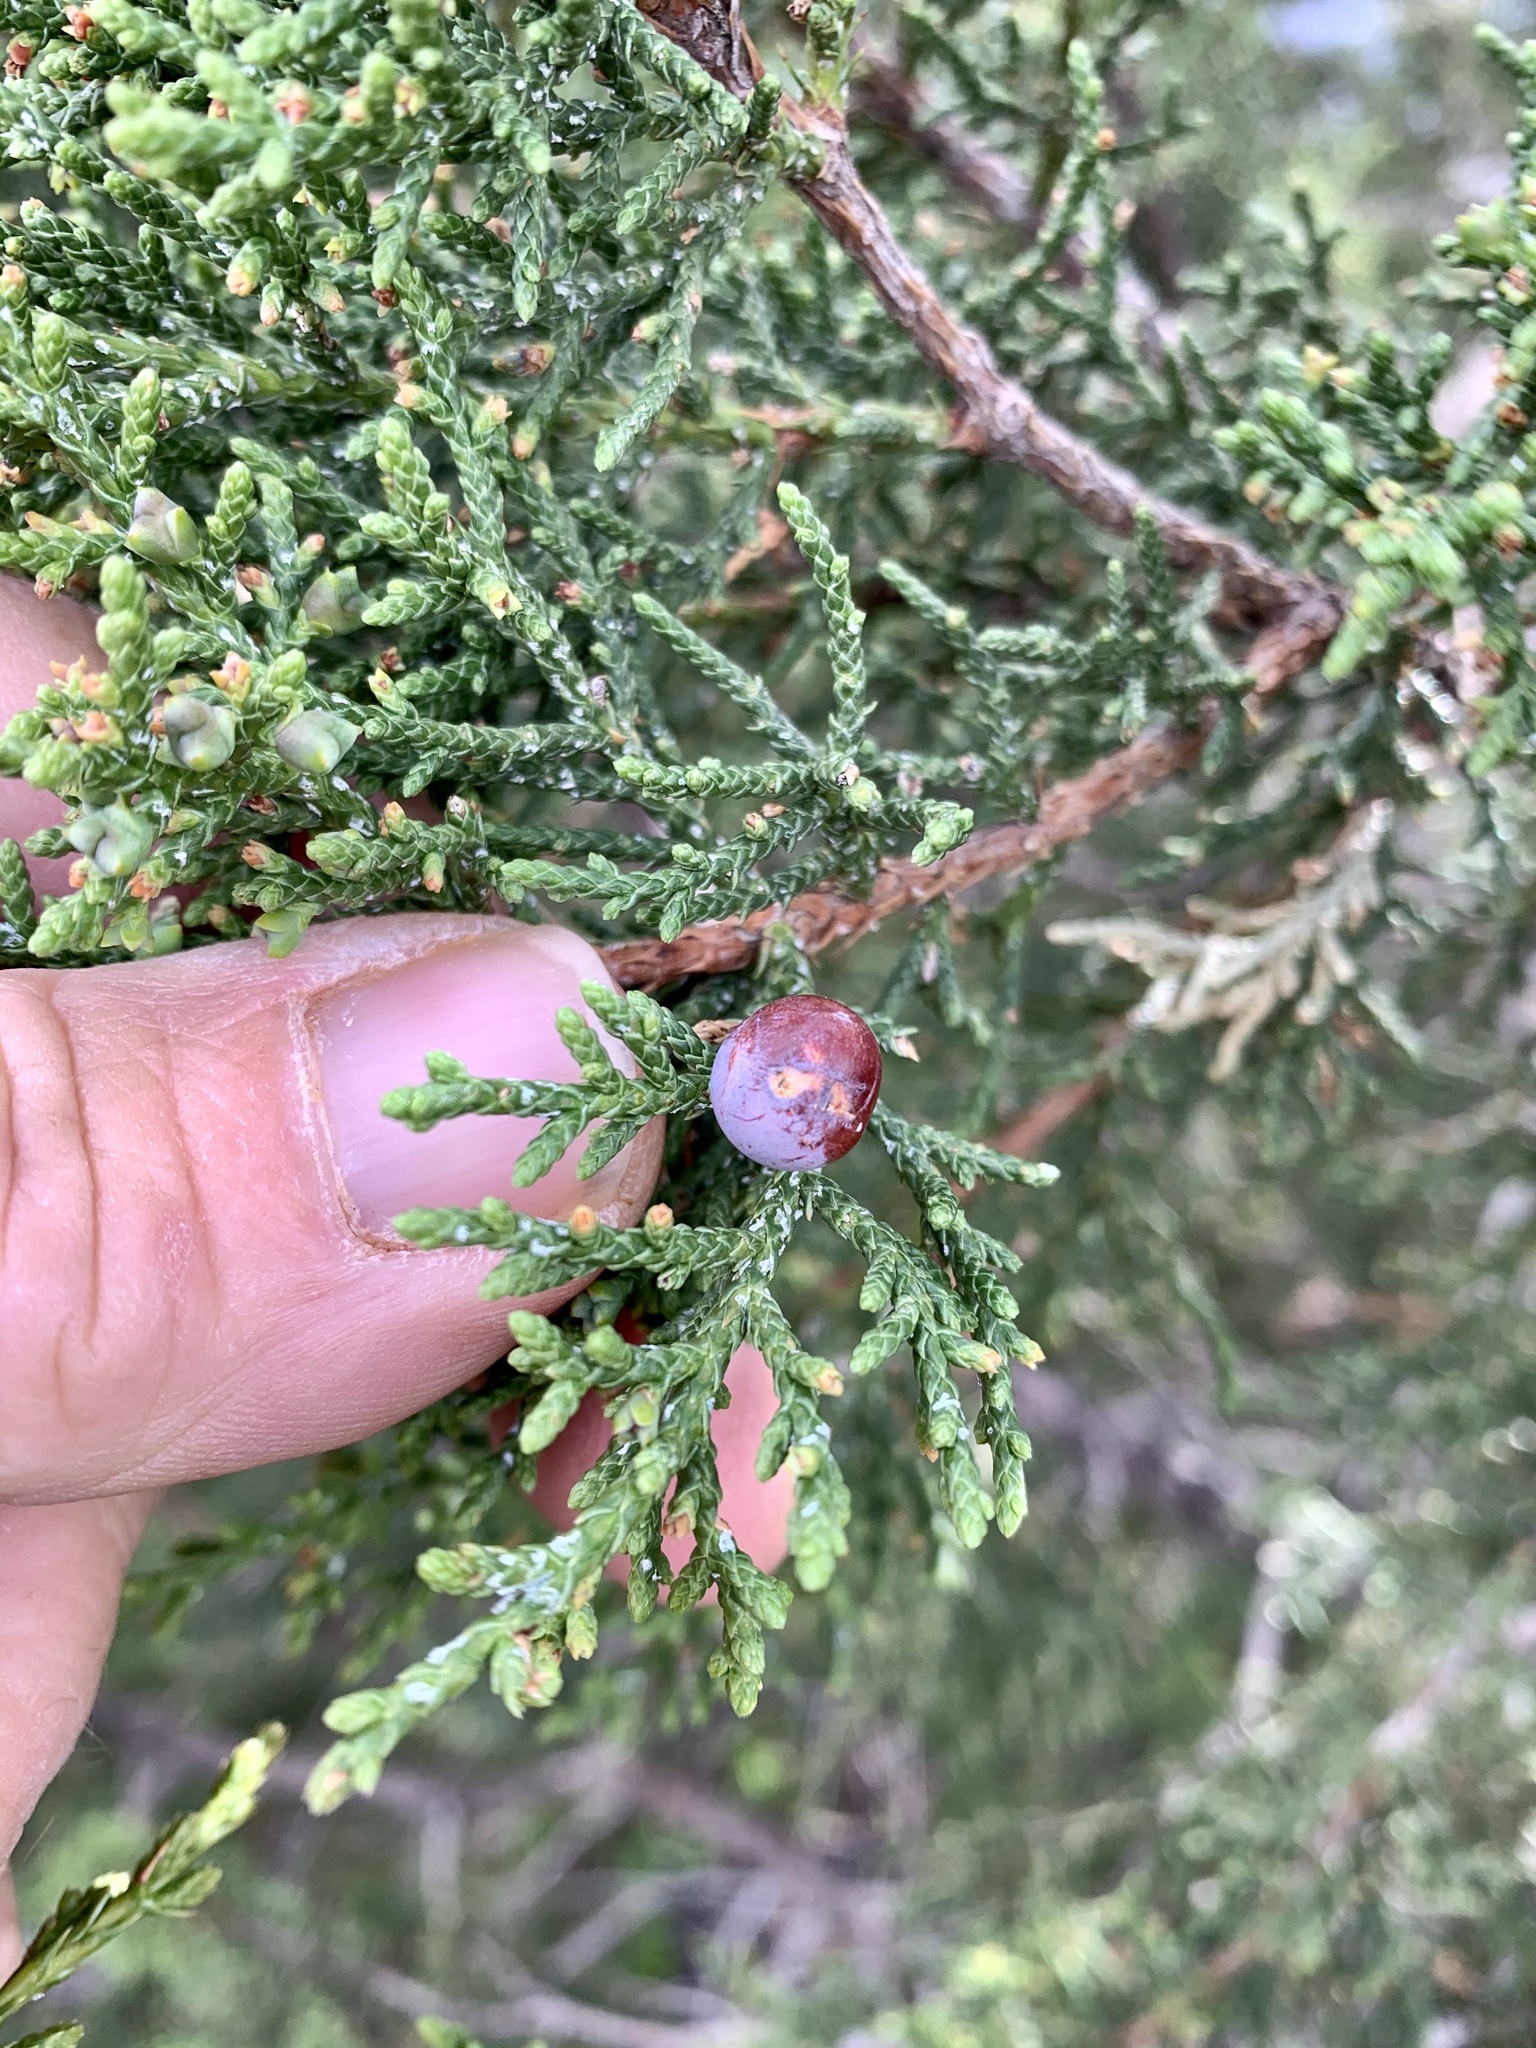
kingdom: Plantae
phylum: Tracheophyta
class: Pinopsida
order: Pinales
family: Cupressaceae
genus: Juniperus
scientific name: Juniperus pinchotii
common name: Pinchot juniper
